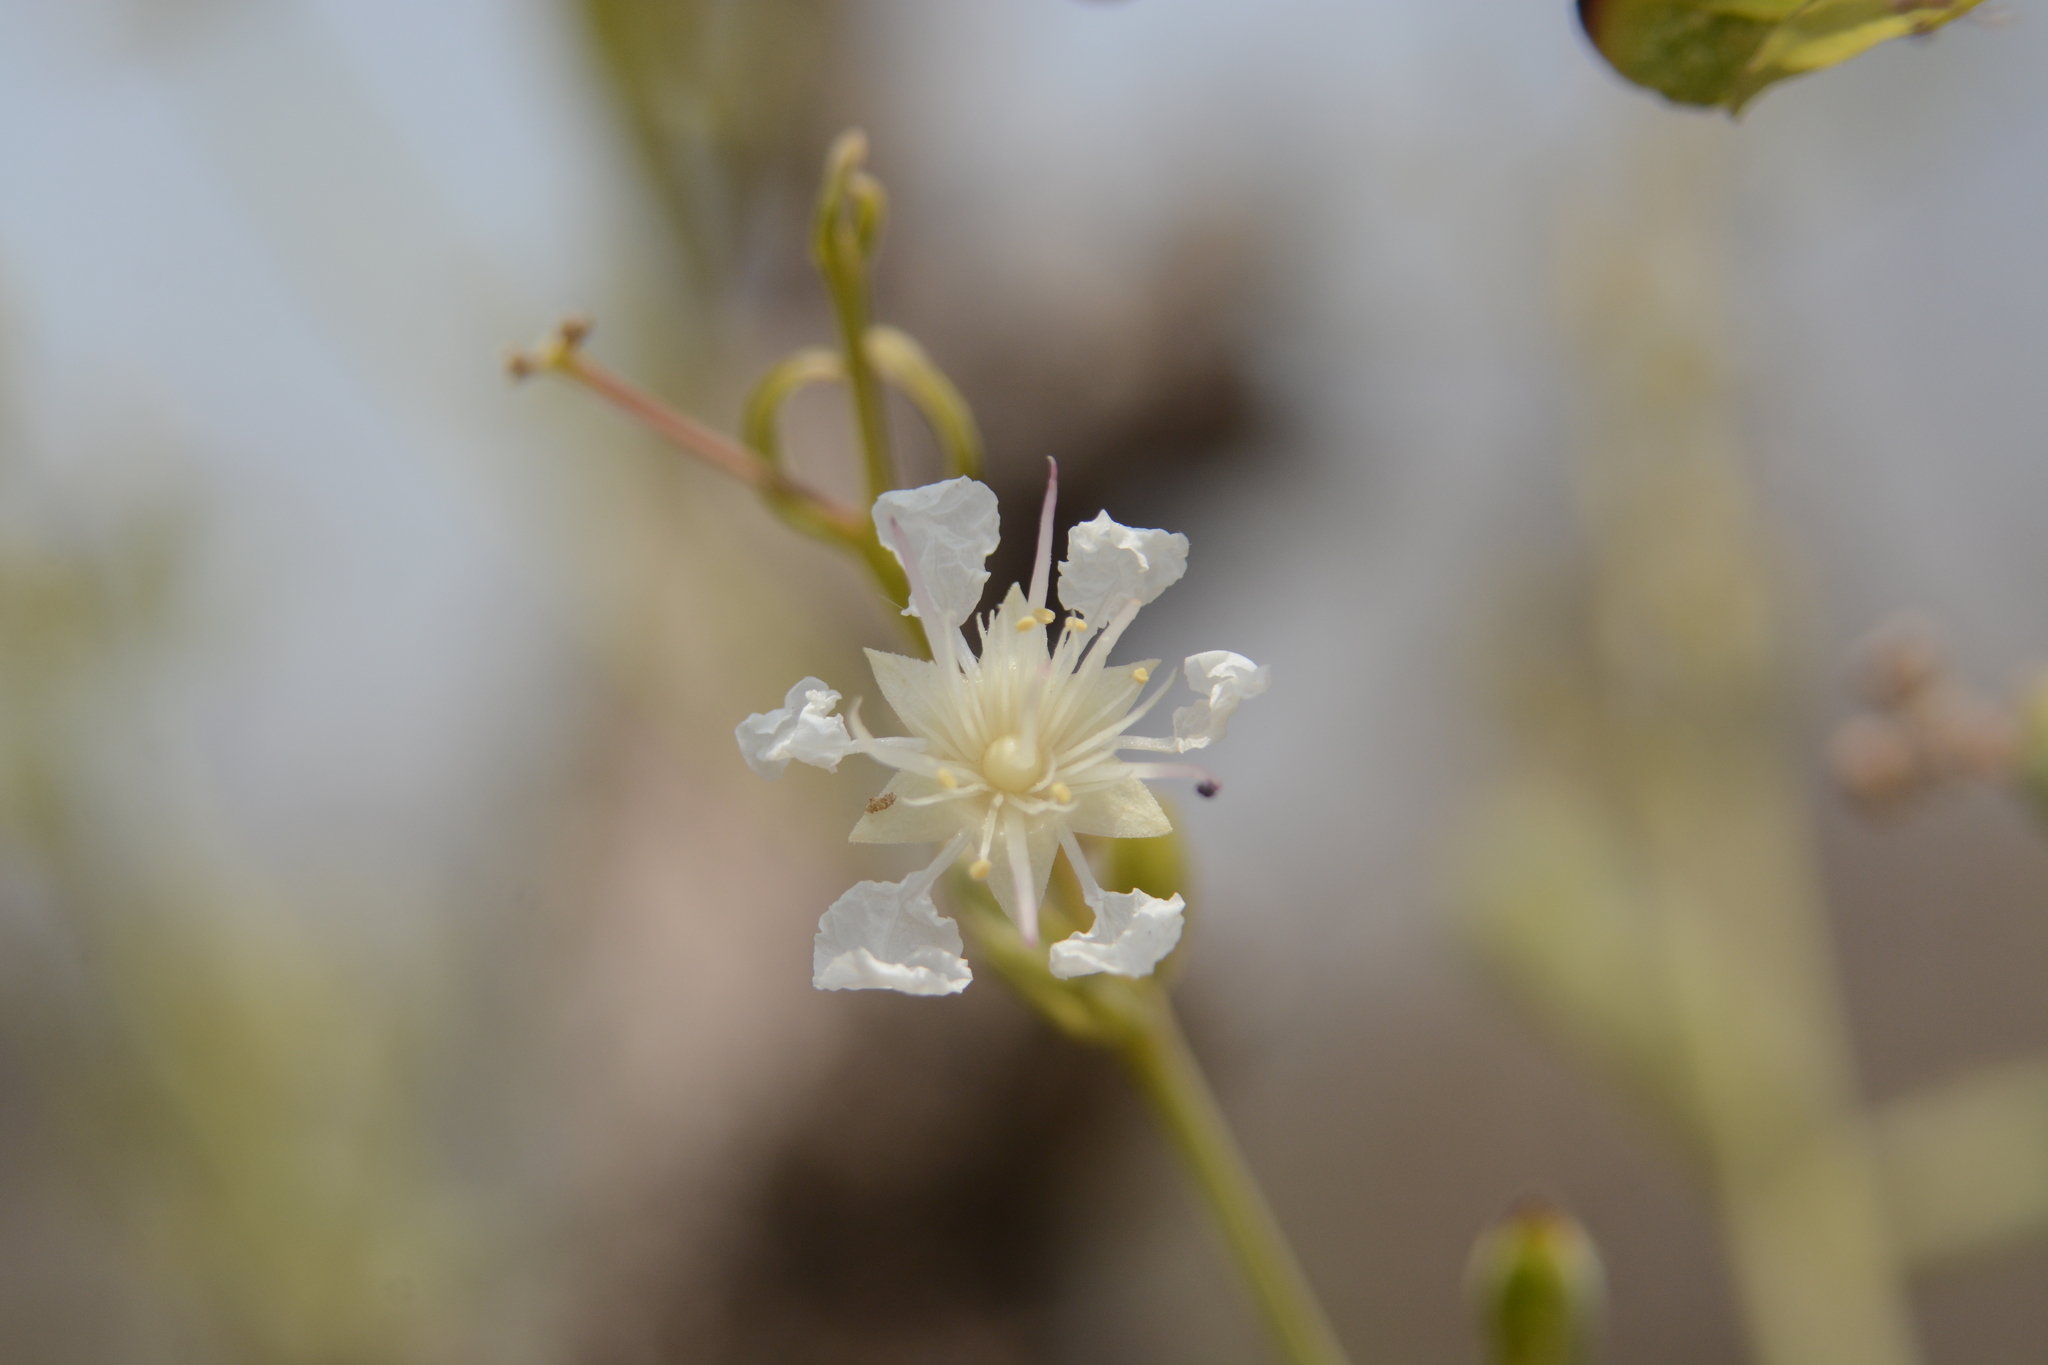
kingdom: Plantae
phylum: Tracheophyta
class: Magnoliopsida
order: Myrtales
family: Lythraceae
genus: Lagerstroemia
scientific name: Lagerstroemia parviflora
